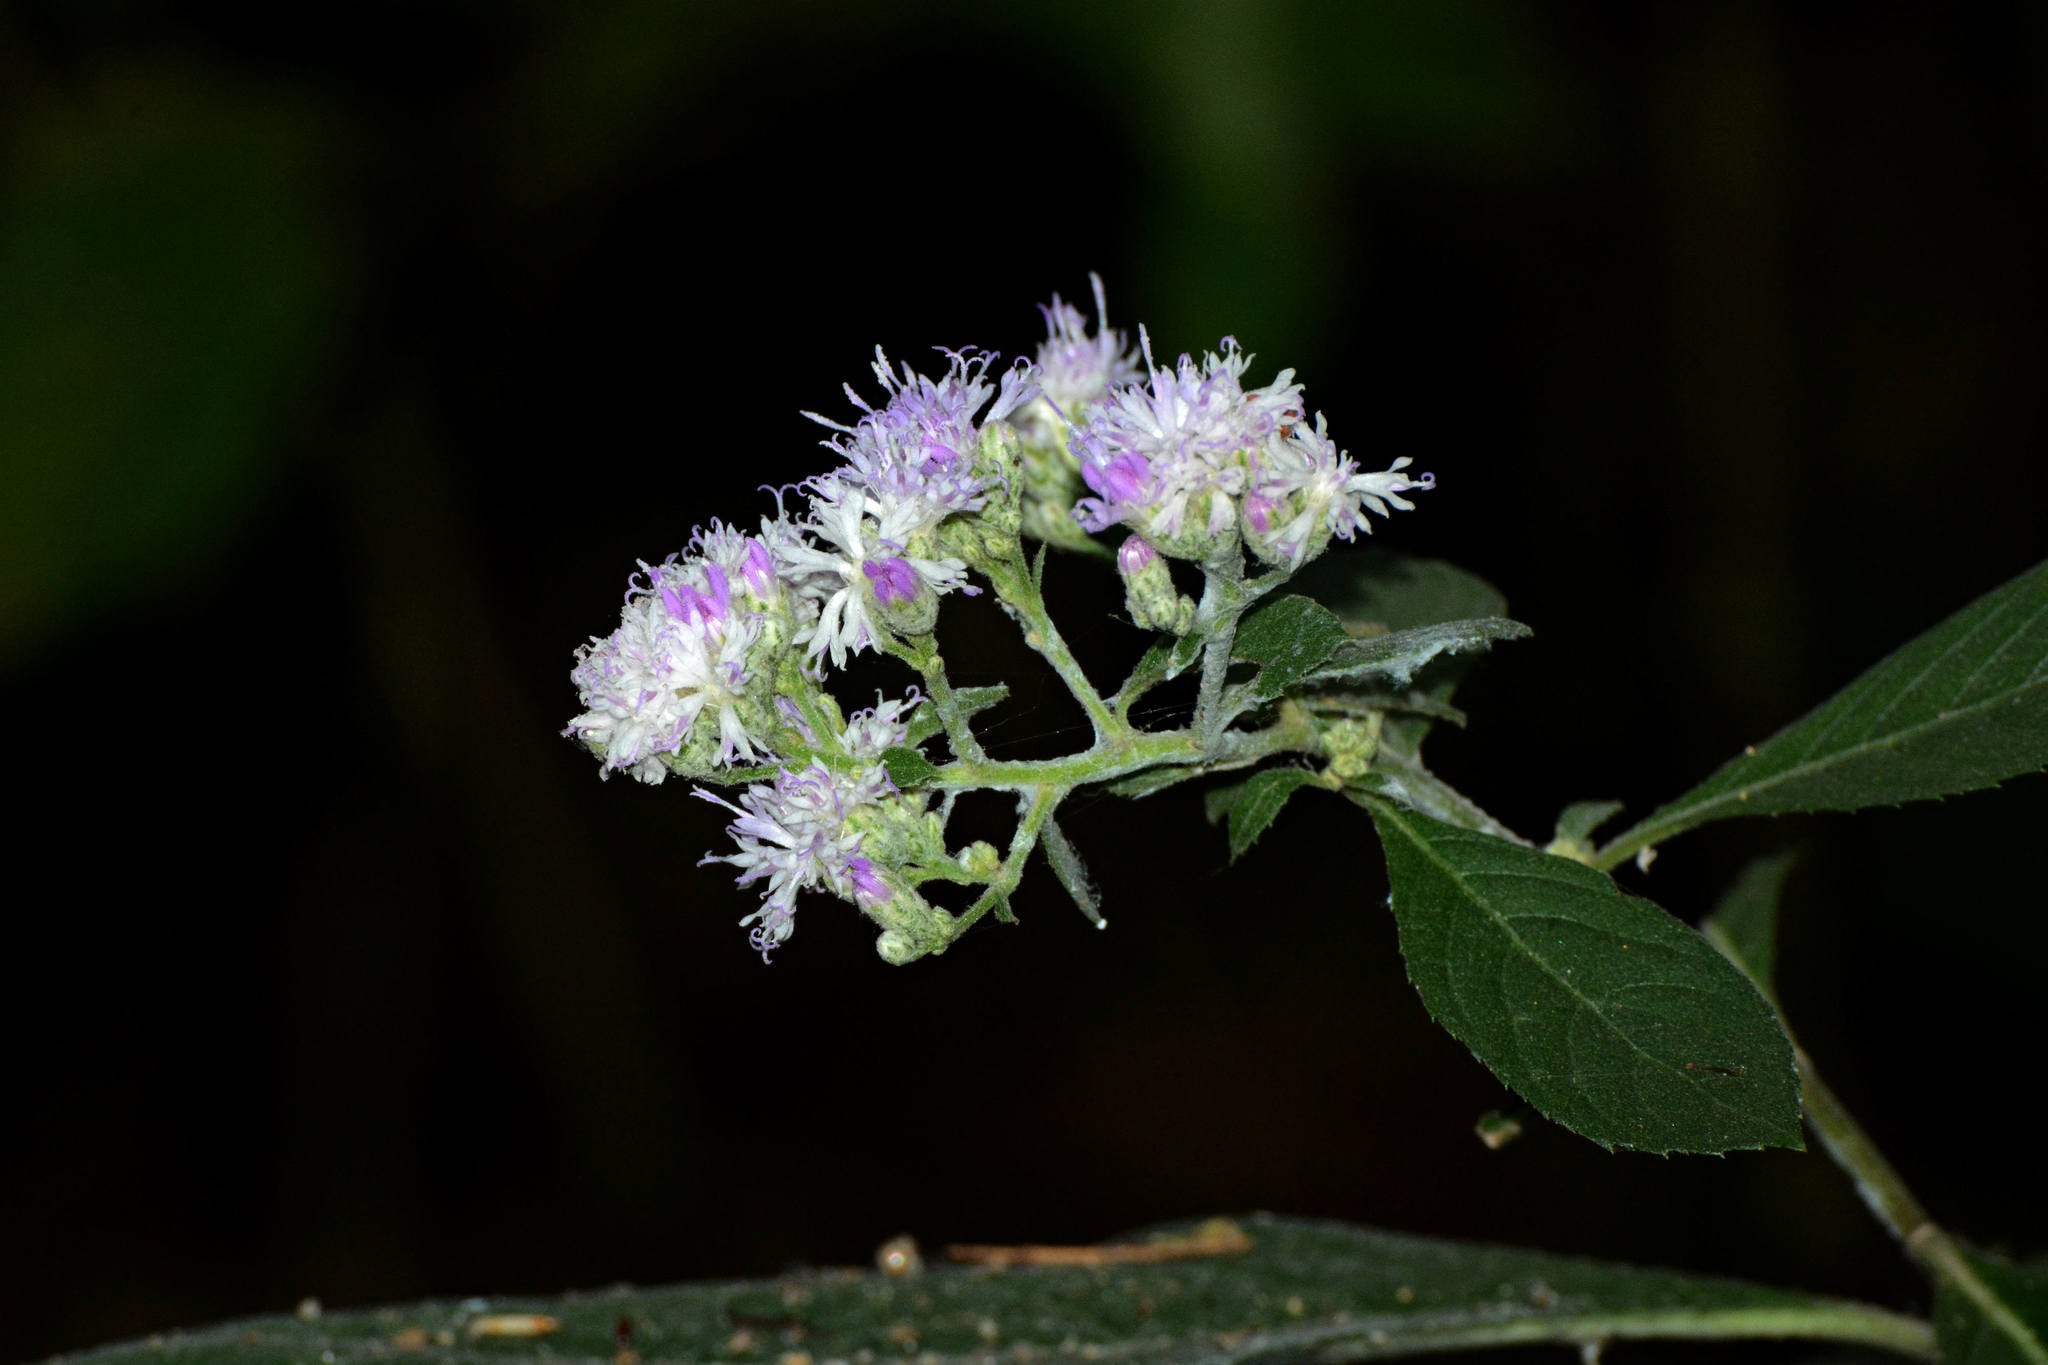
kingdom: Plantae
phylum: Tracheophyta
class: Magnoliopsida
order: Asterales
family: Asteraceae
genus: Acilepis
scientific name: Acilepis divergens
